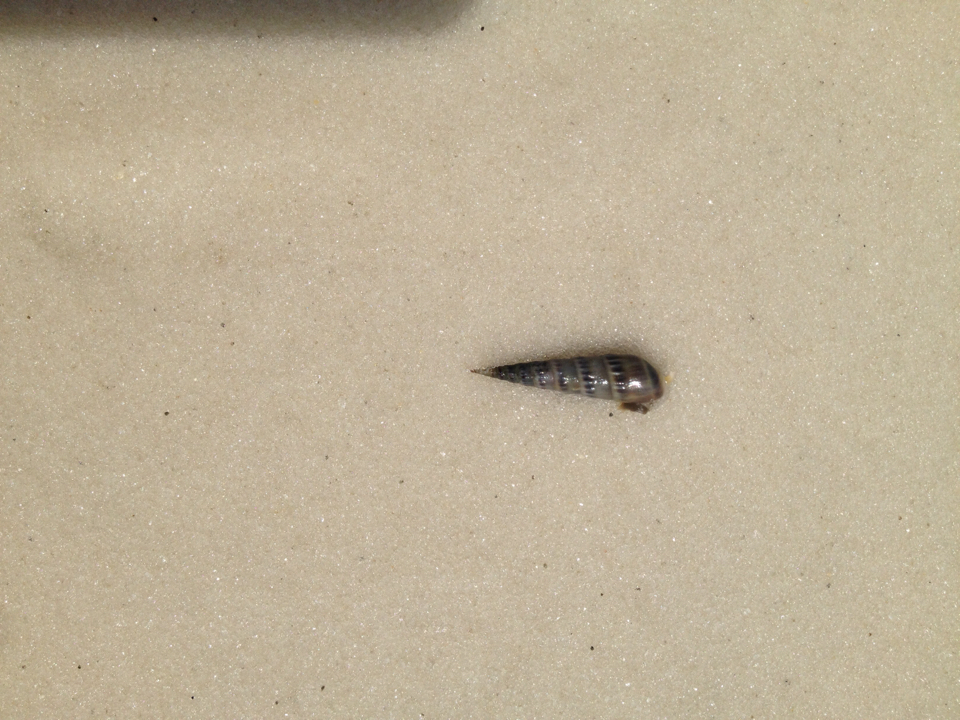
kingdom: Animalia
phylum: Mollusca
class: Gastropoda
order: Neogastropoda
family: Terebridae
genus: Hastula
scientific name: Hastula salleana
